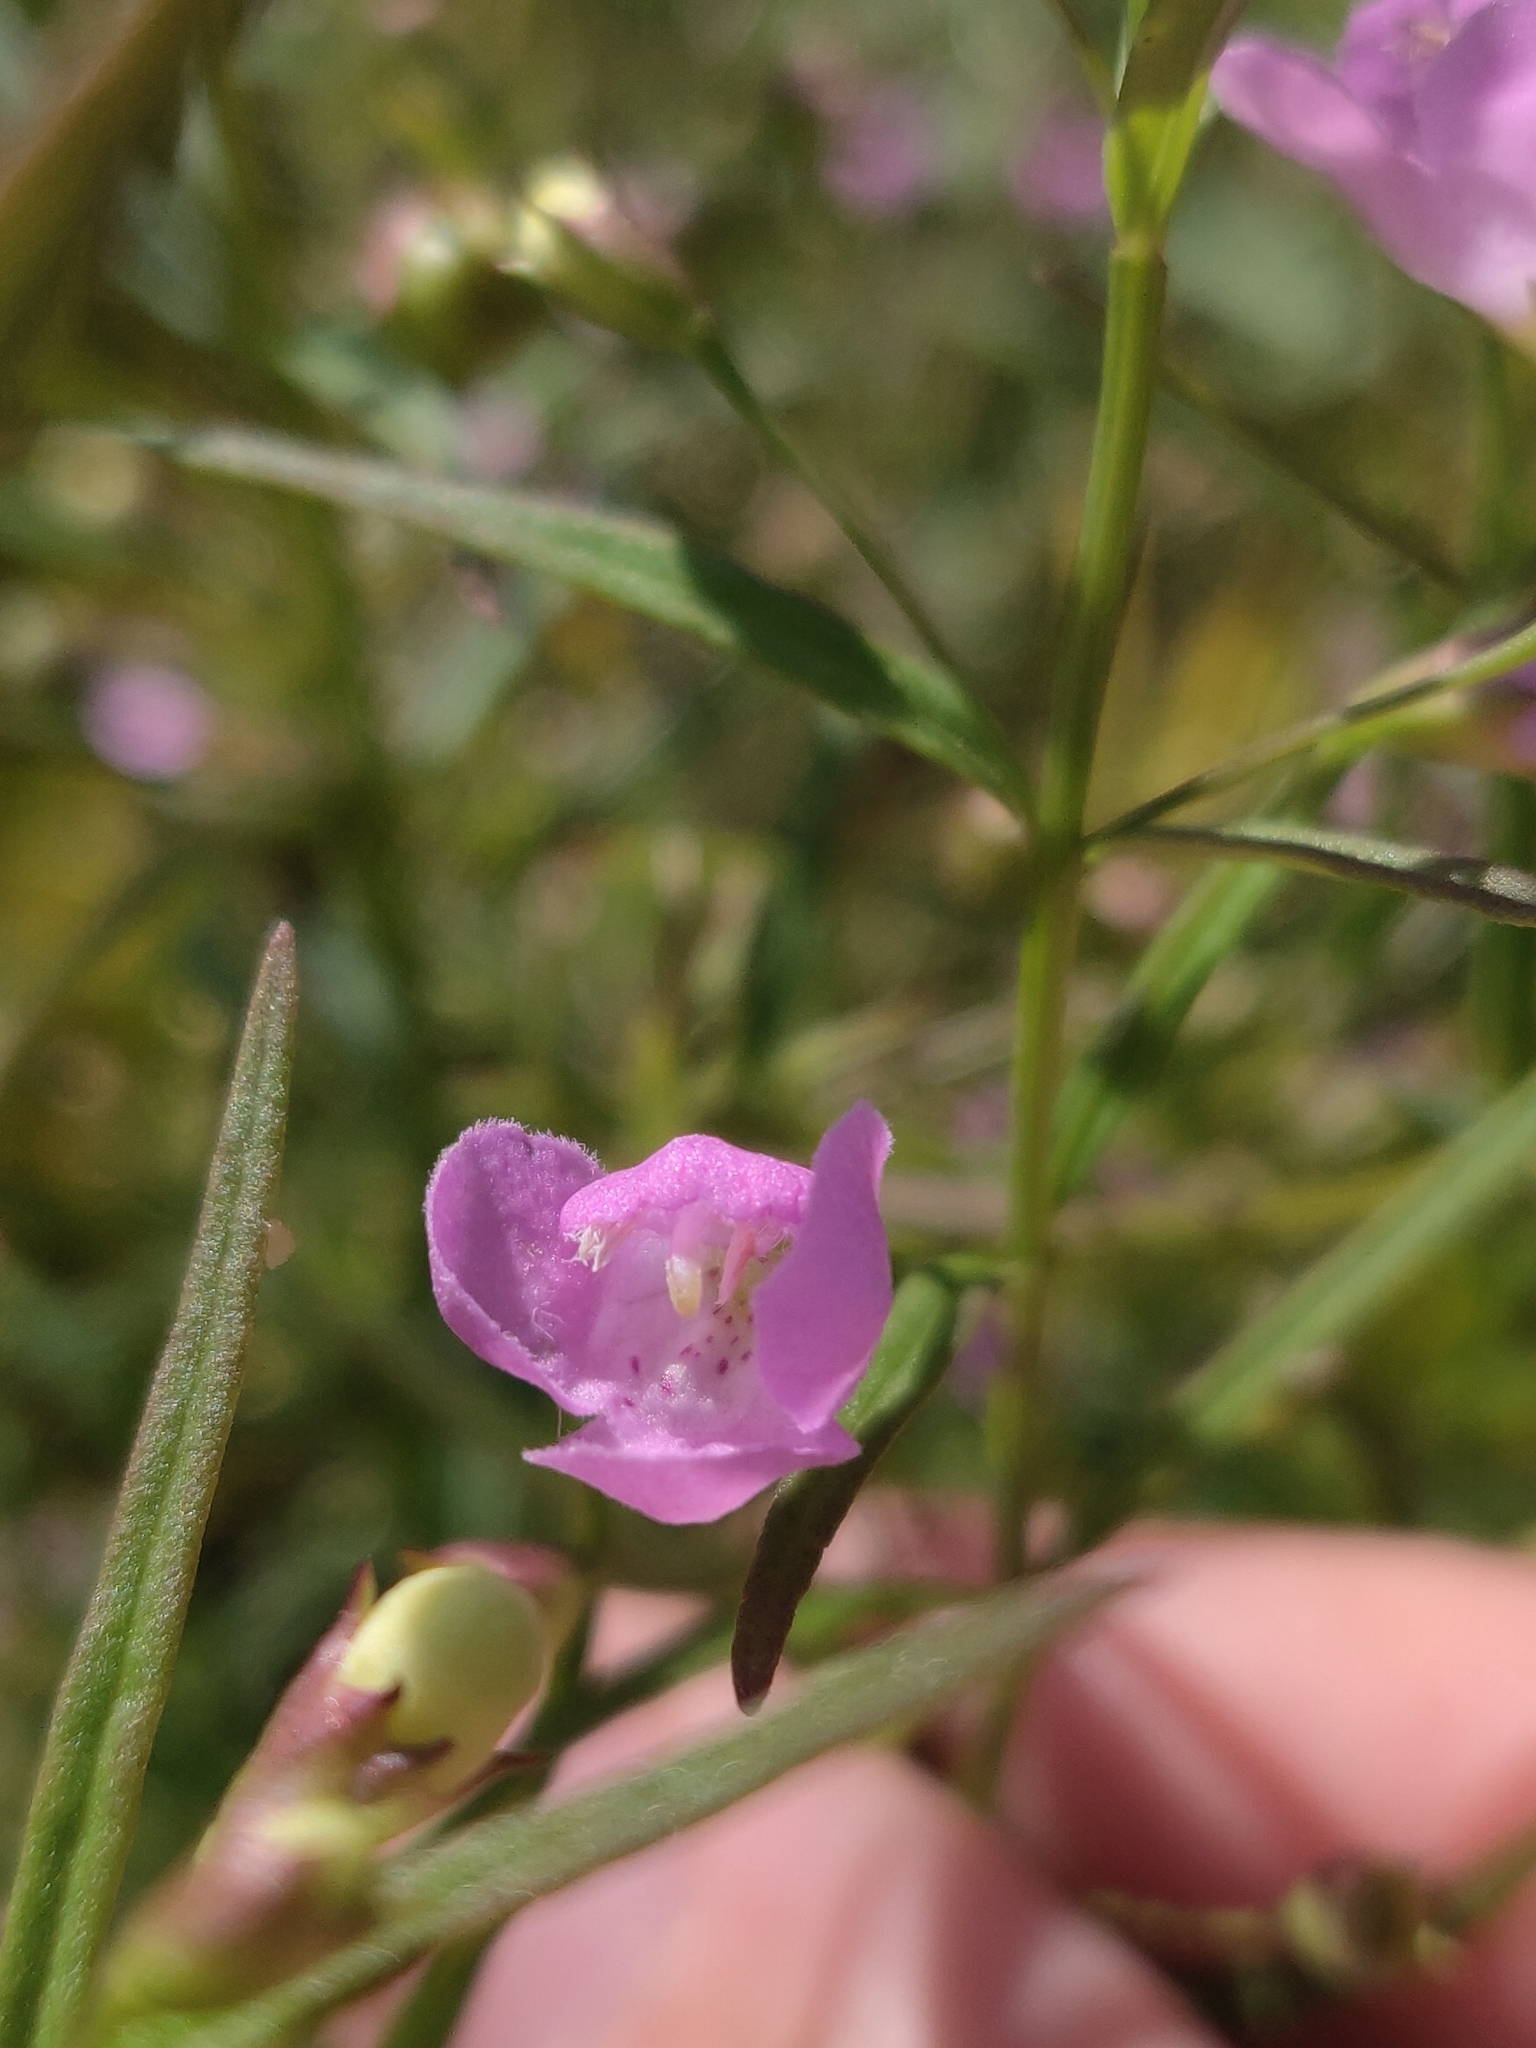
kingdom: Plantae
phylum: Tracheophyta
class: Magnoliopsida
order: Lamiales
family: Orobanchaceae
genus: Agalinis
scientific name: Agalinis tenuifolia
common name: Slender agalinis
